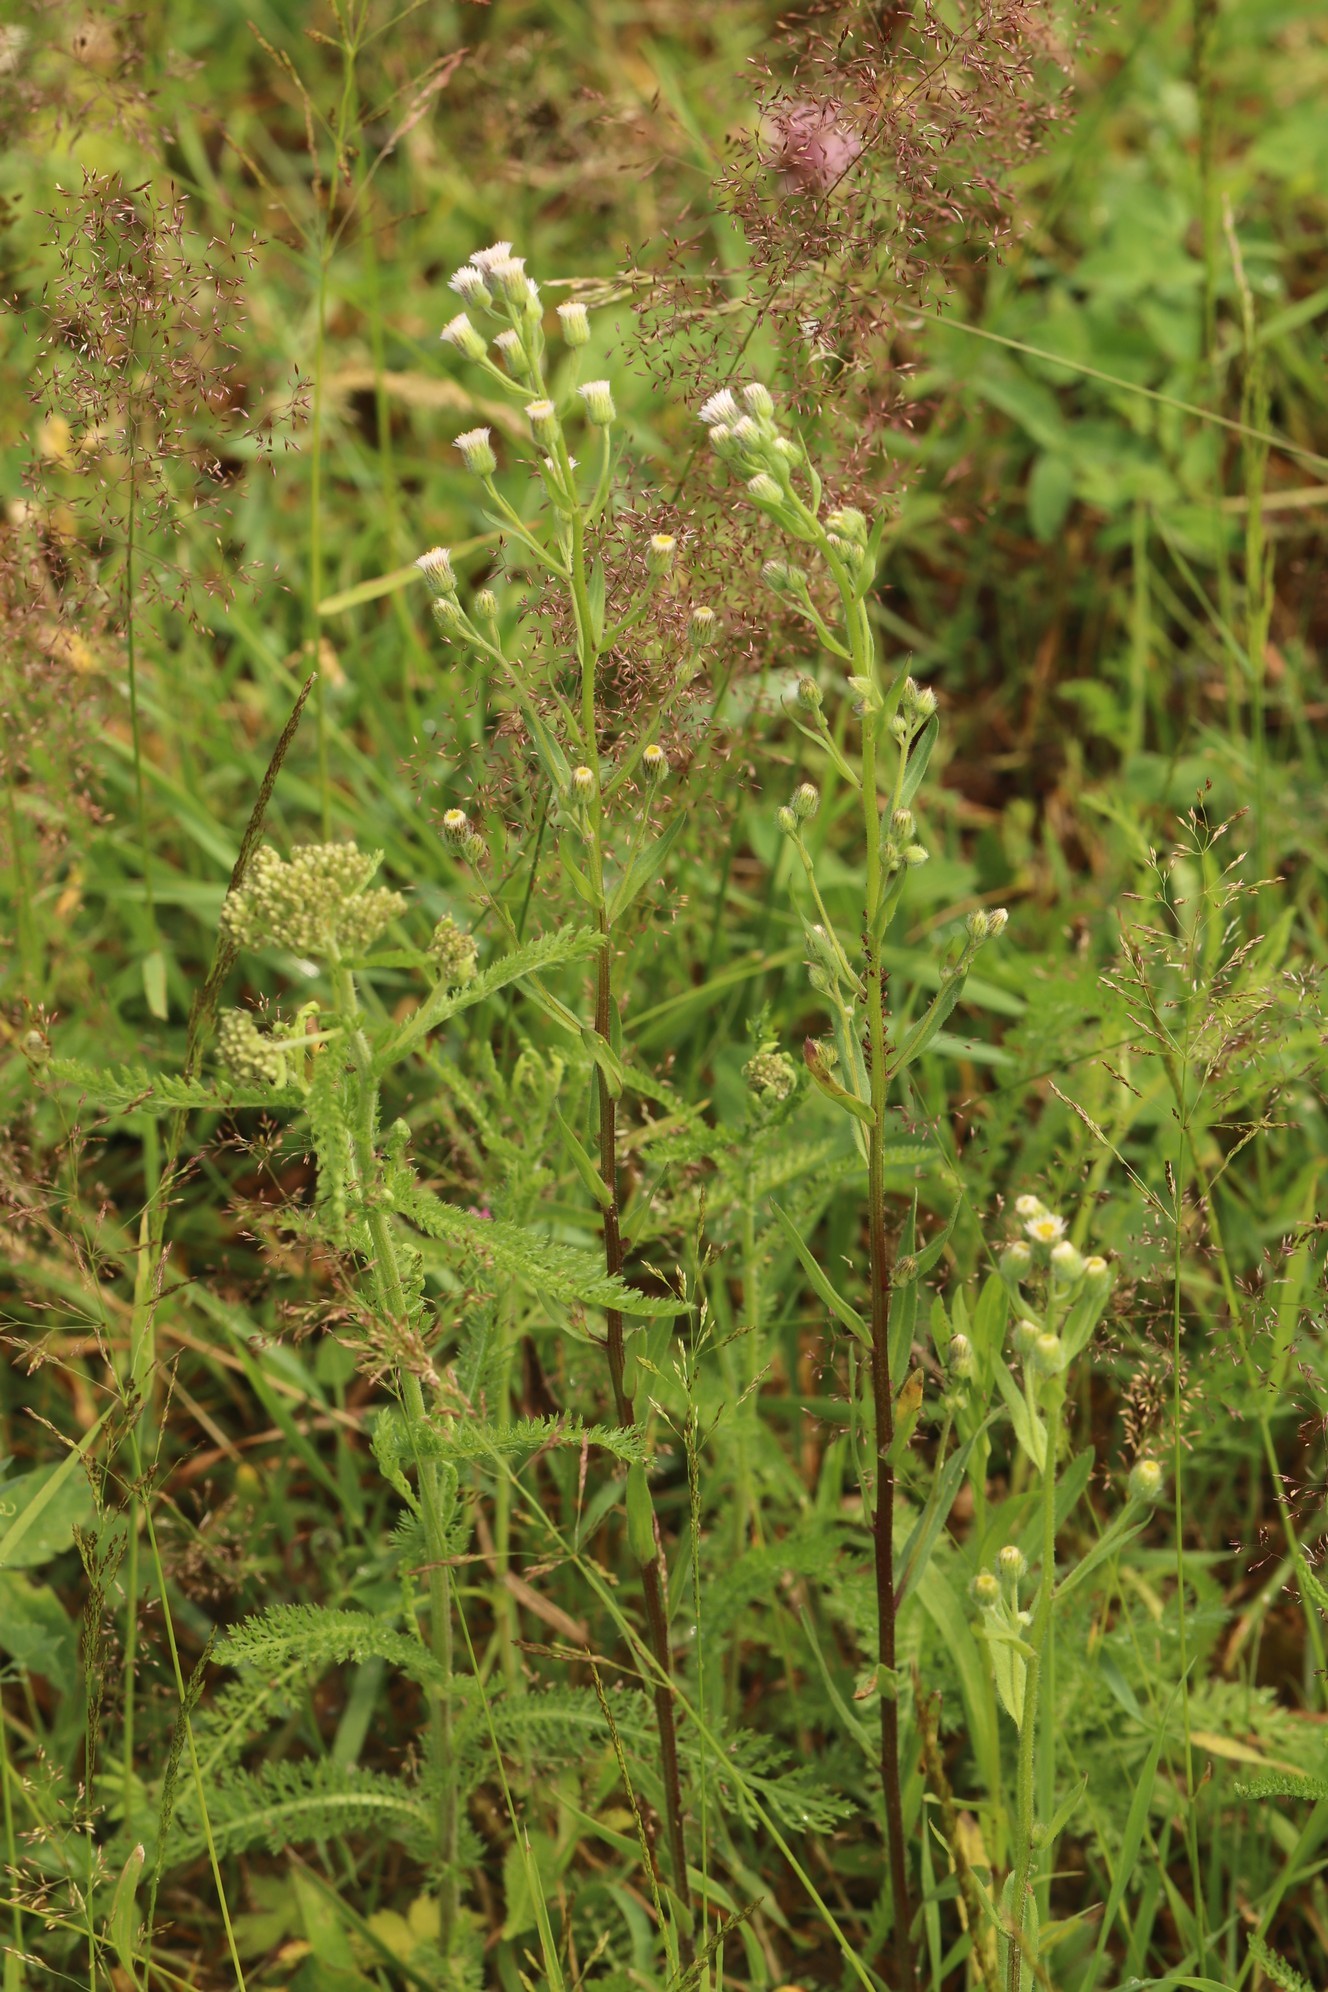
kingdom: Plantae
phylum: Tracheophyta
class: Magnoliopsida
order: Asterales
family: Asteraceae
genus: Erigeron
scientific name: Erigeron acris
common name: Blue fleabane
